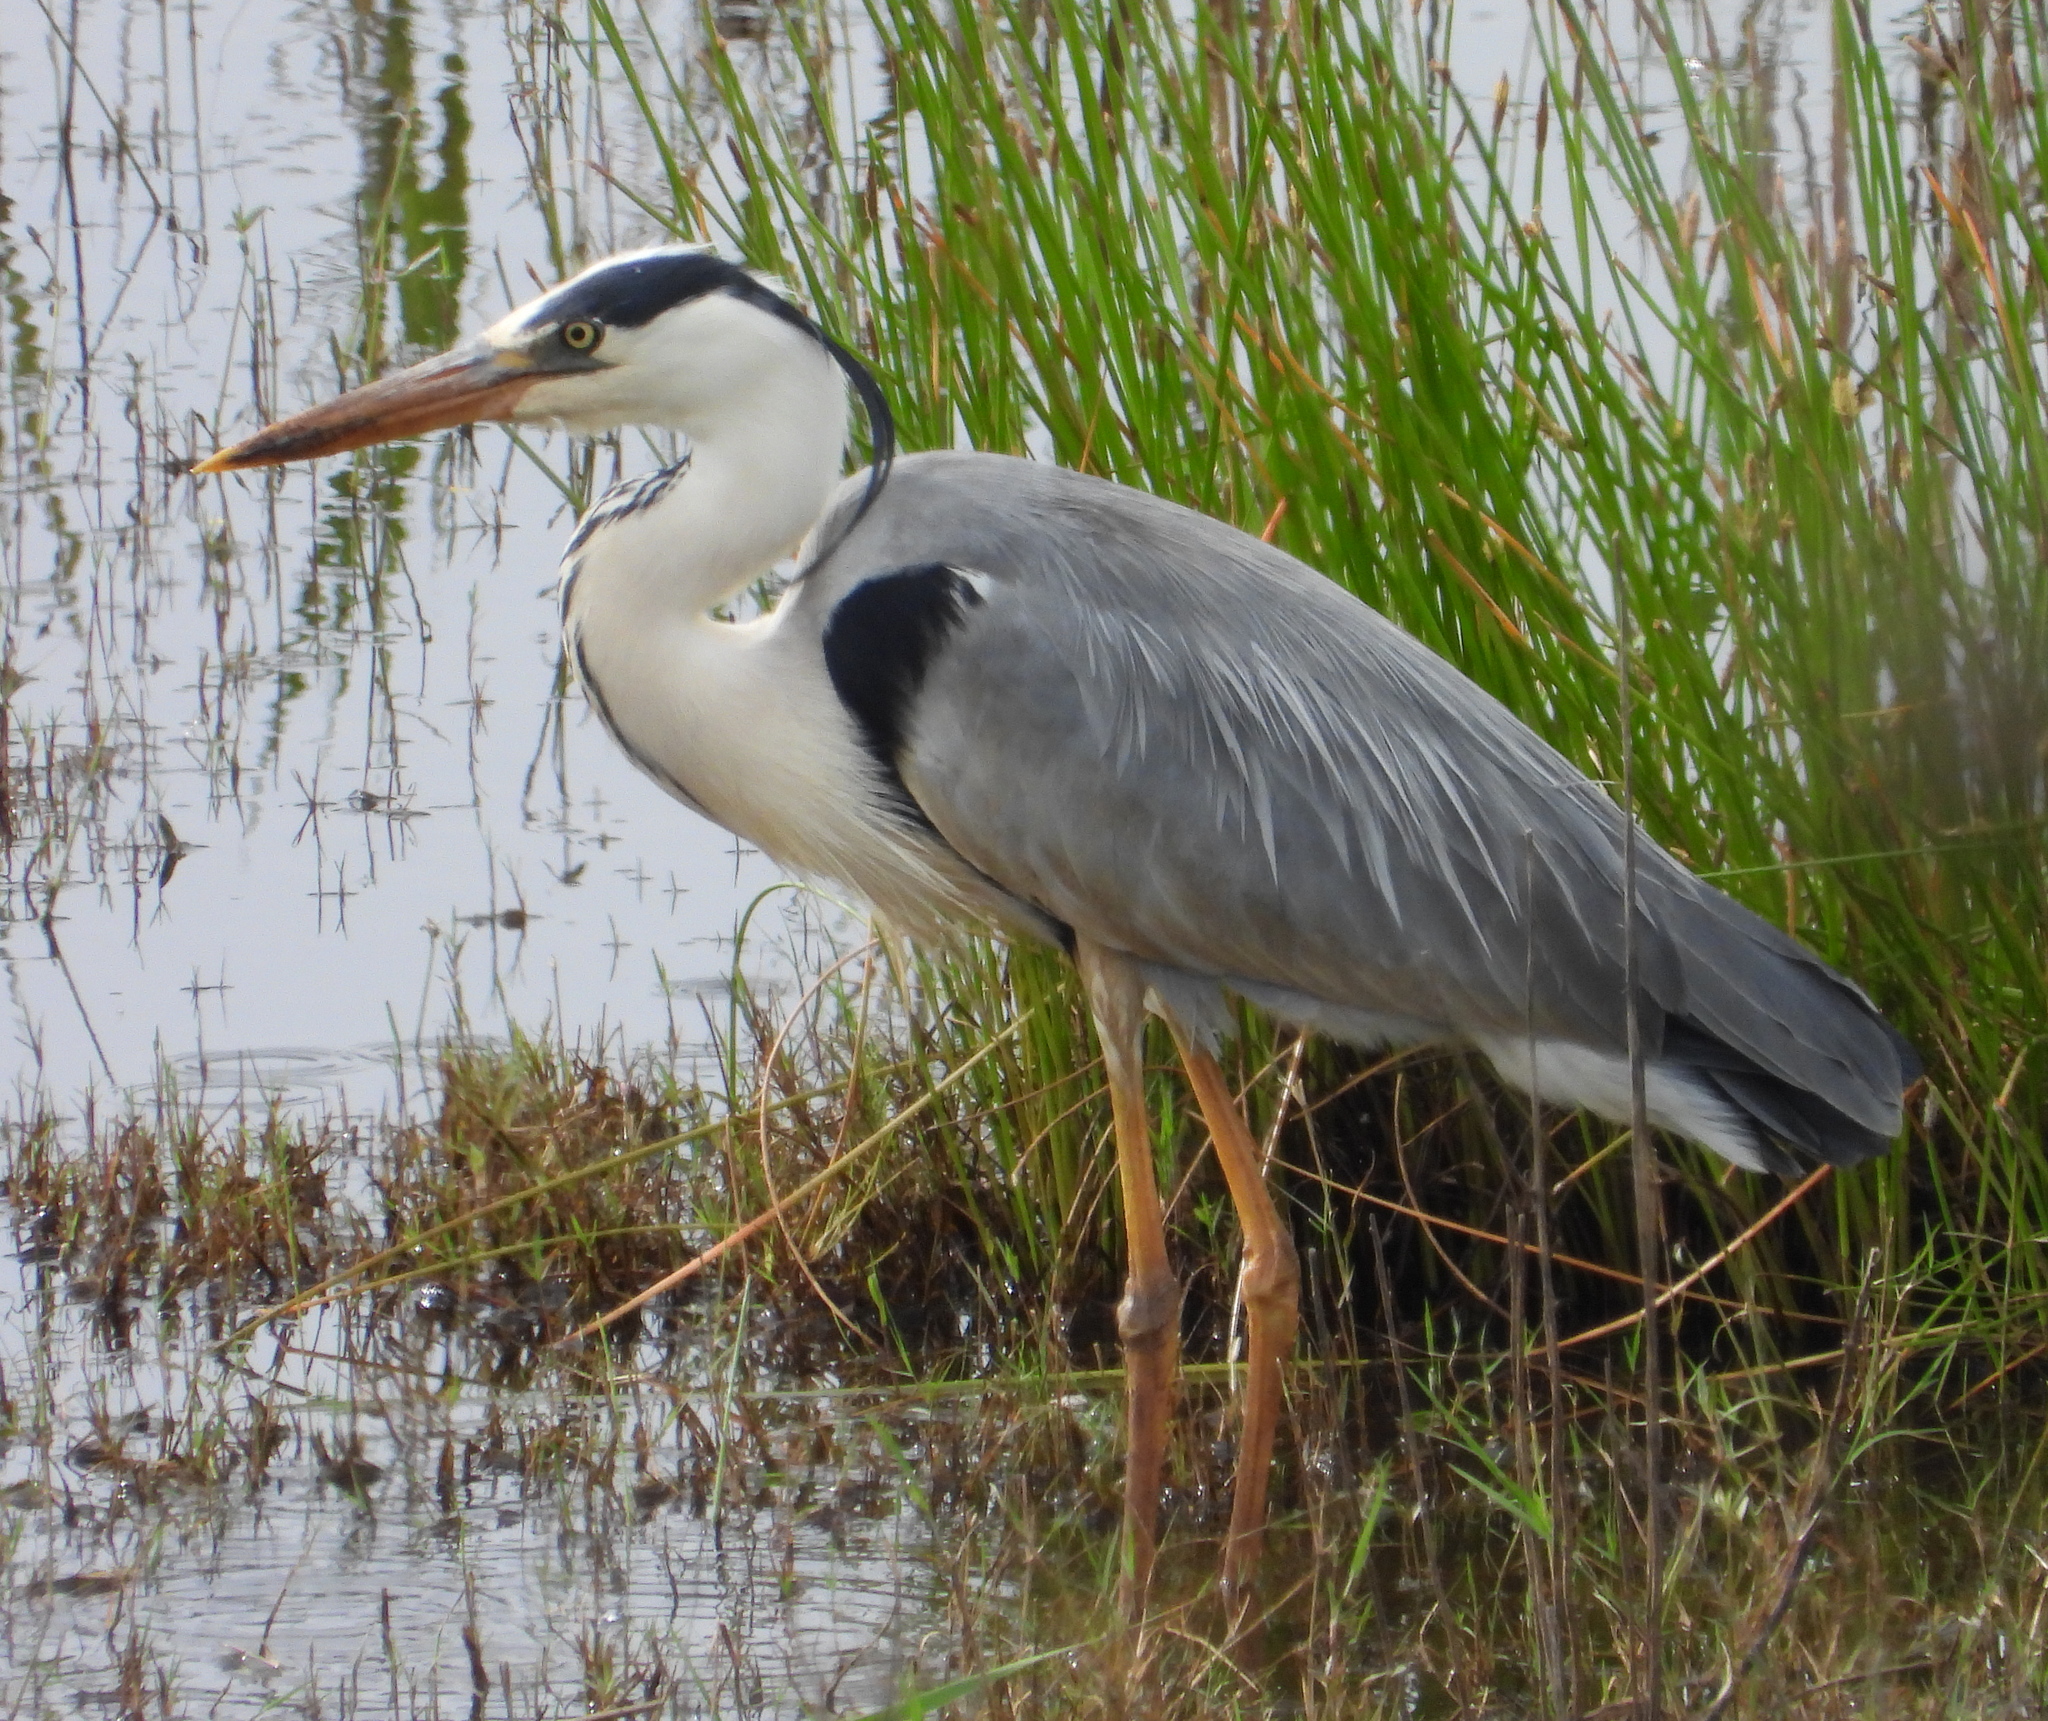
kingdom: Animalia
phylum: Chordata
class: Aves
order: Pelecaniformes
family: Ardeidae
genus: Ardea
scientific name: Ardea cinerea
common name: Grey heron
